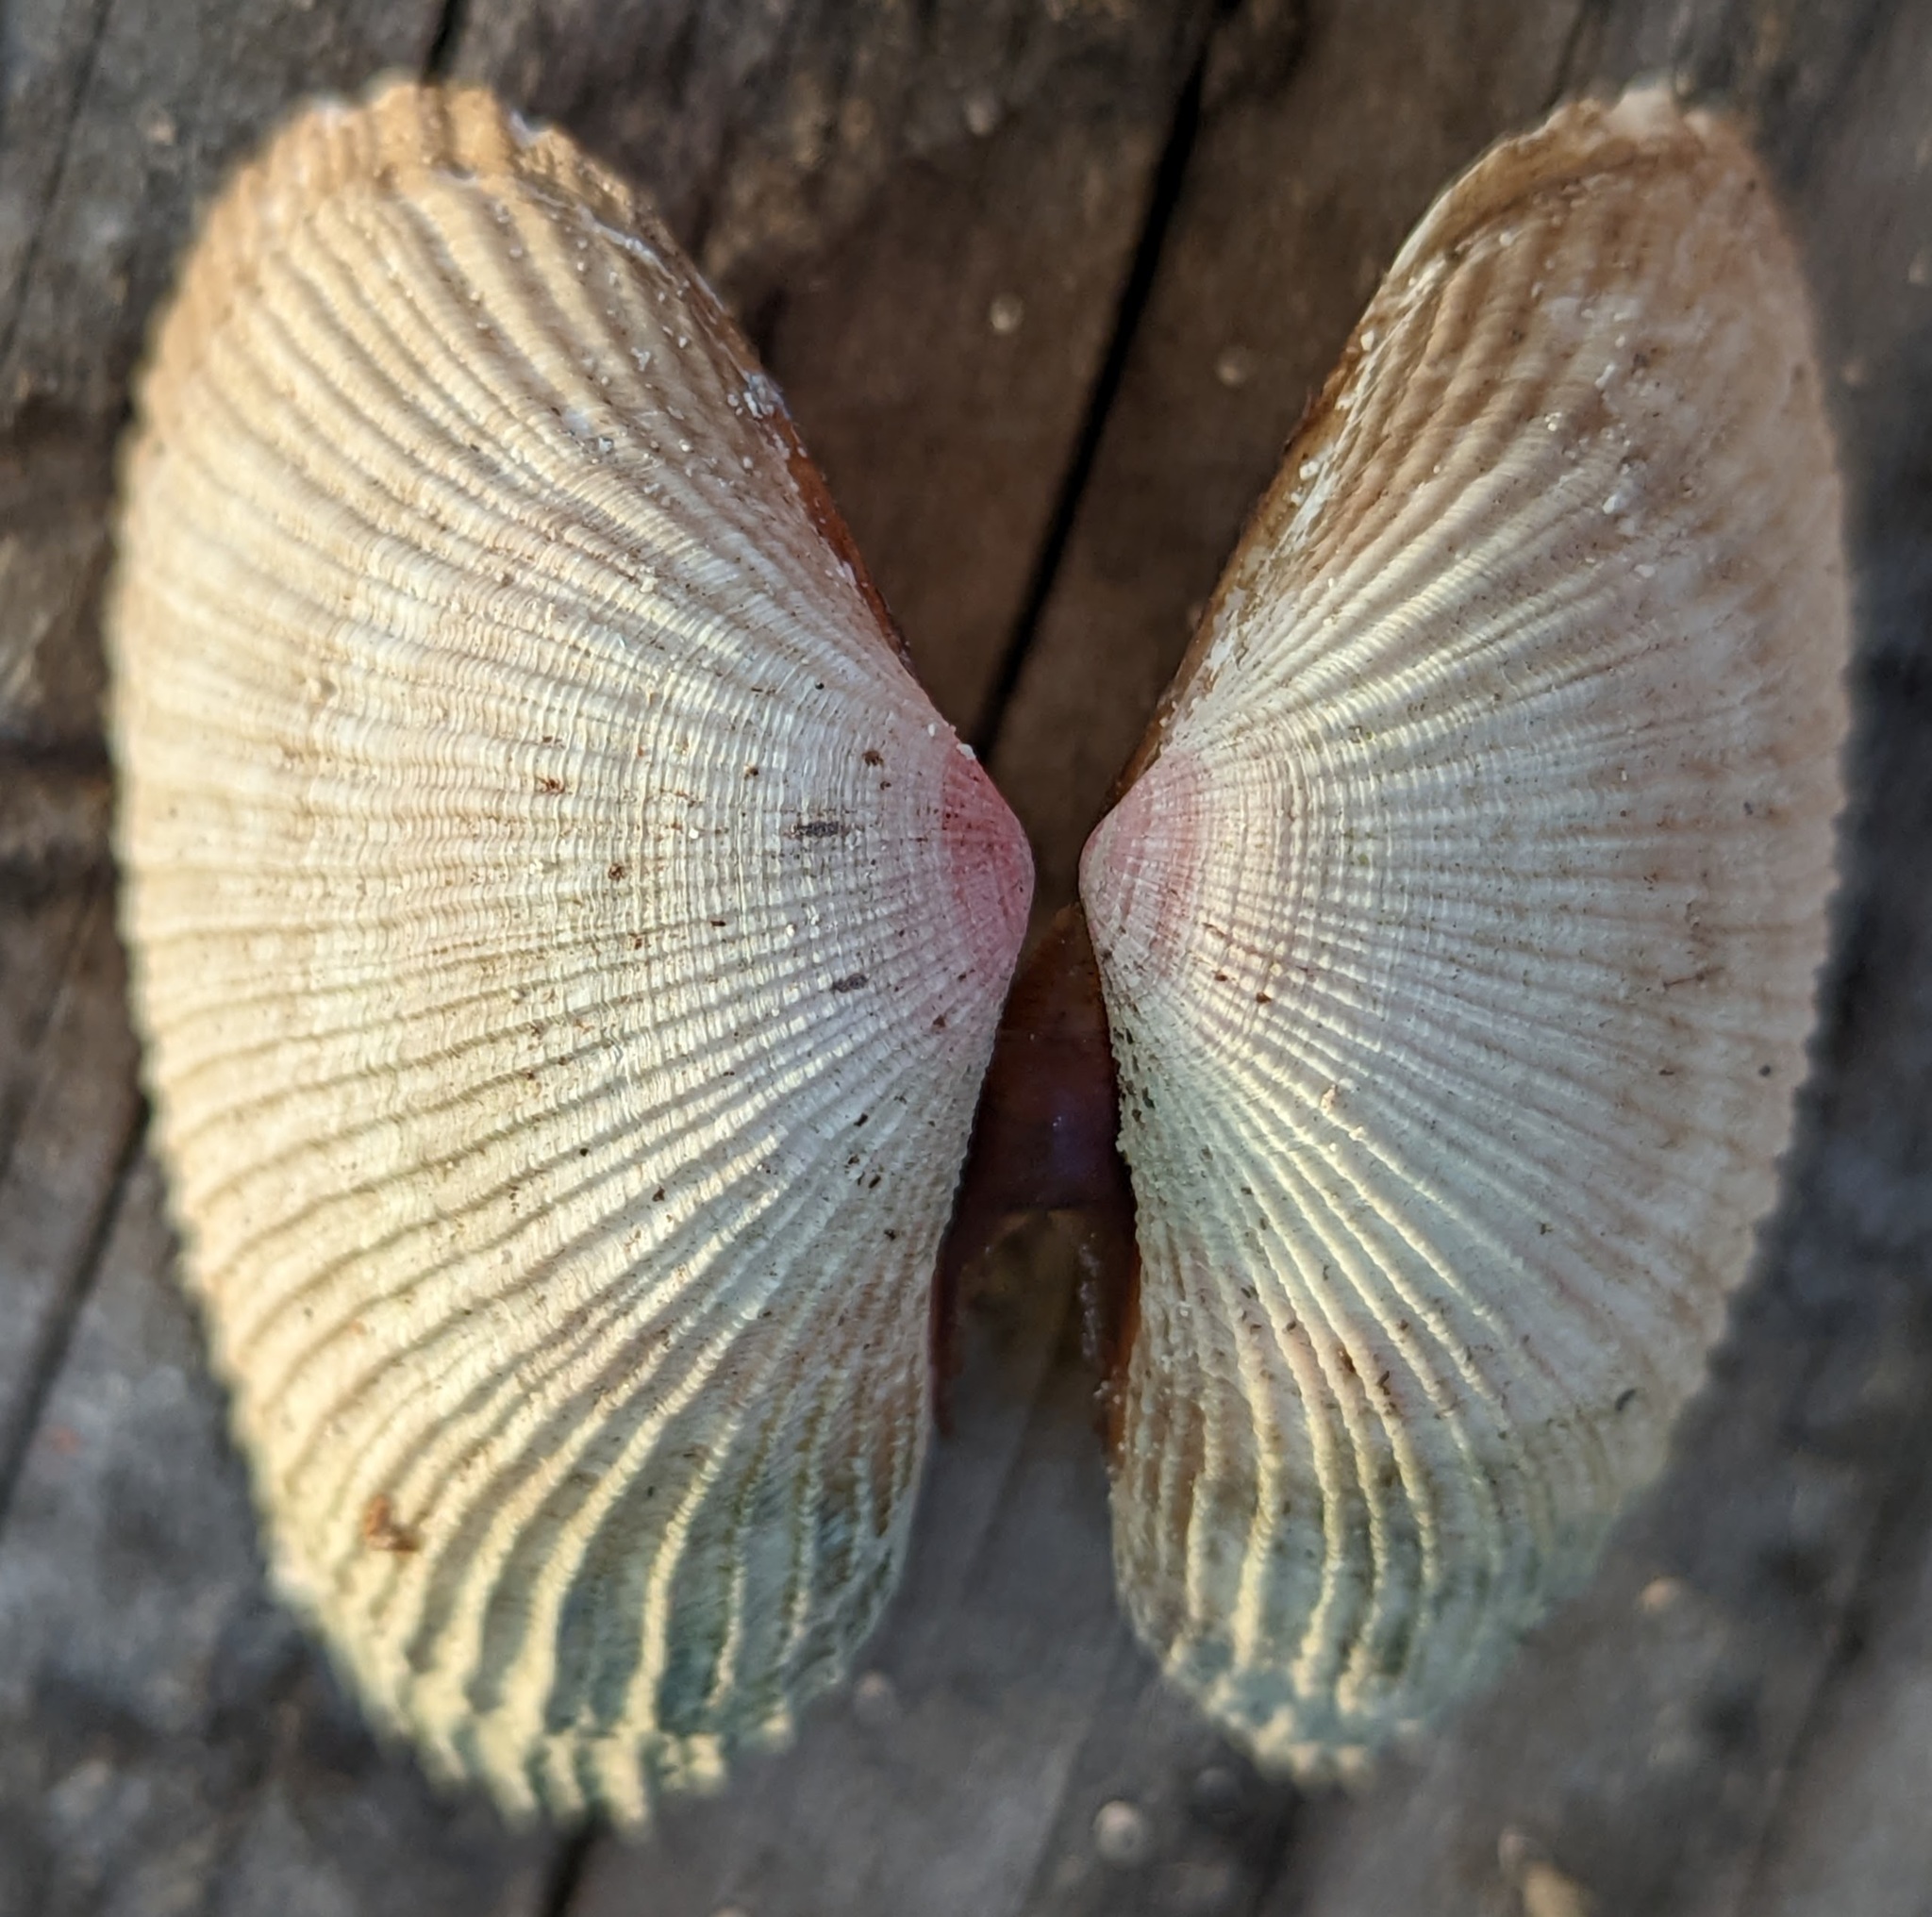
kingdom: Animalia
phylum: Mollusca
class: Bivalvia
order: Cardiida
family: Psammobiidae
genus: Asaphis
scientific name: Asaphis violascens
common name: Pacific asaphis
